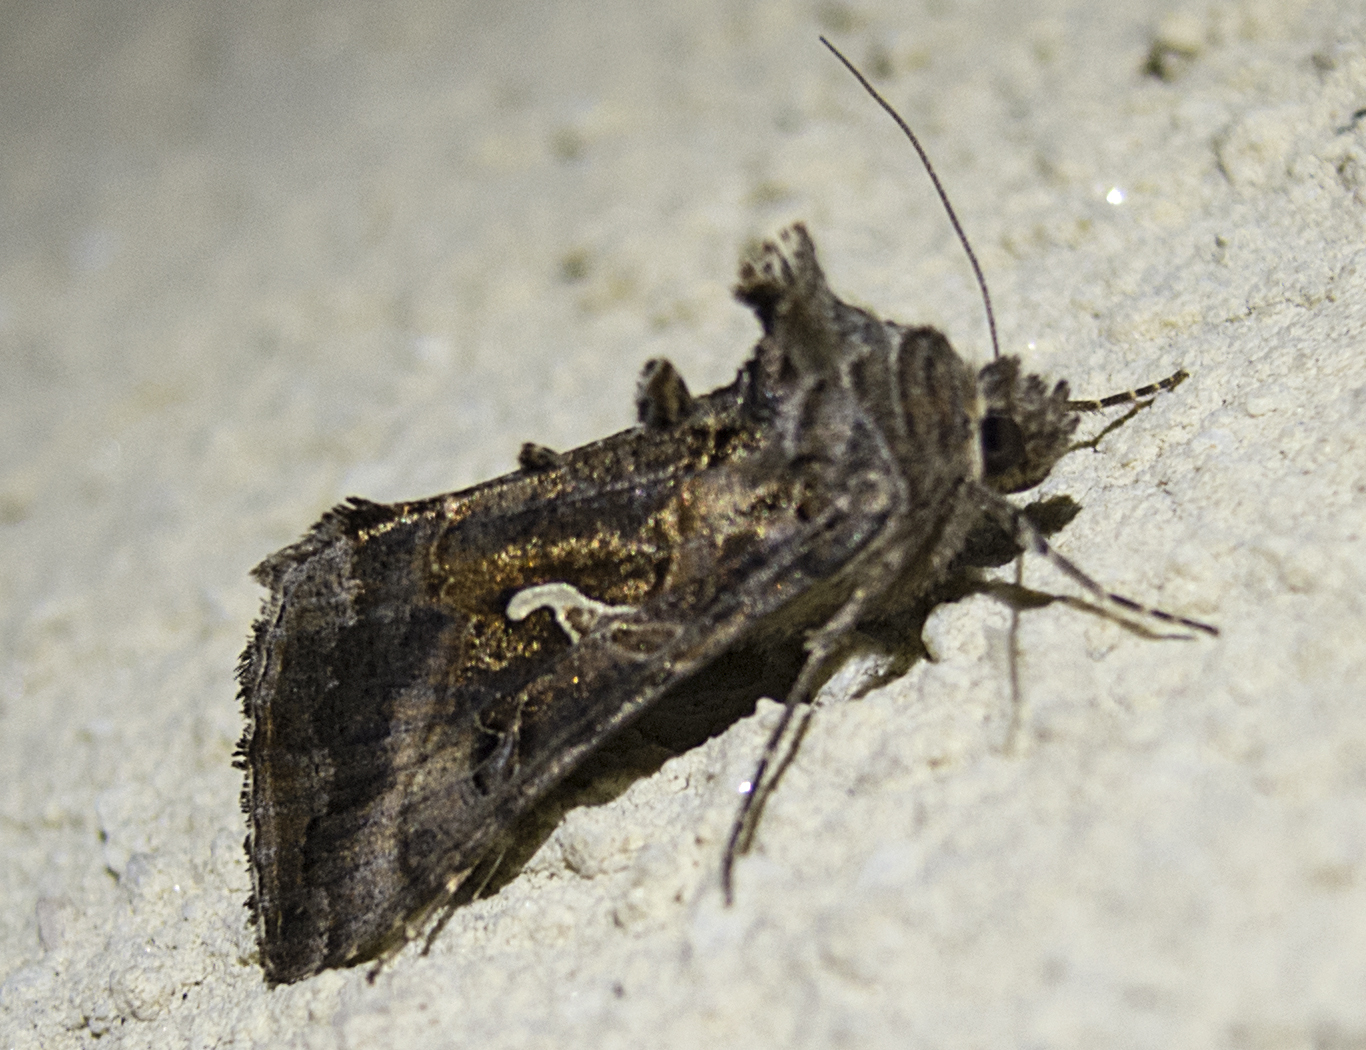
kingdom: Animalia
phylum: Arthropoda
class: Insecta
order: Lepidoptera
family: Noctuidae
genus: Autographa
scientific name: Autographa gamma
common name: Silver y
